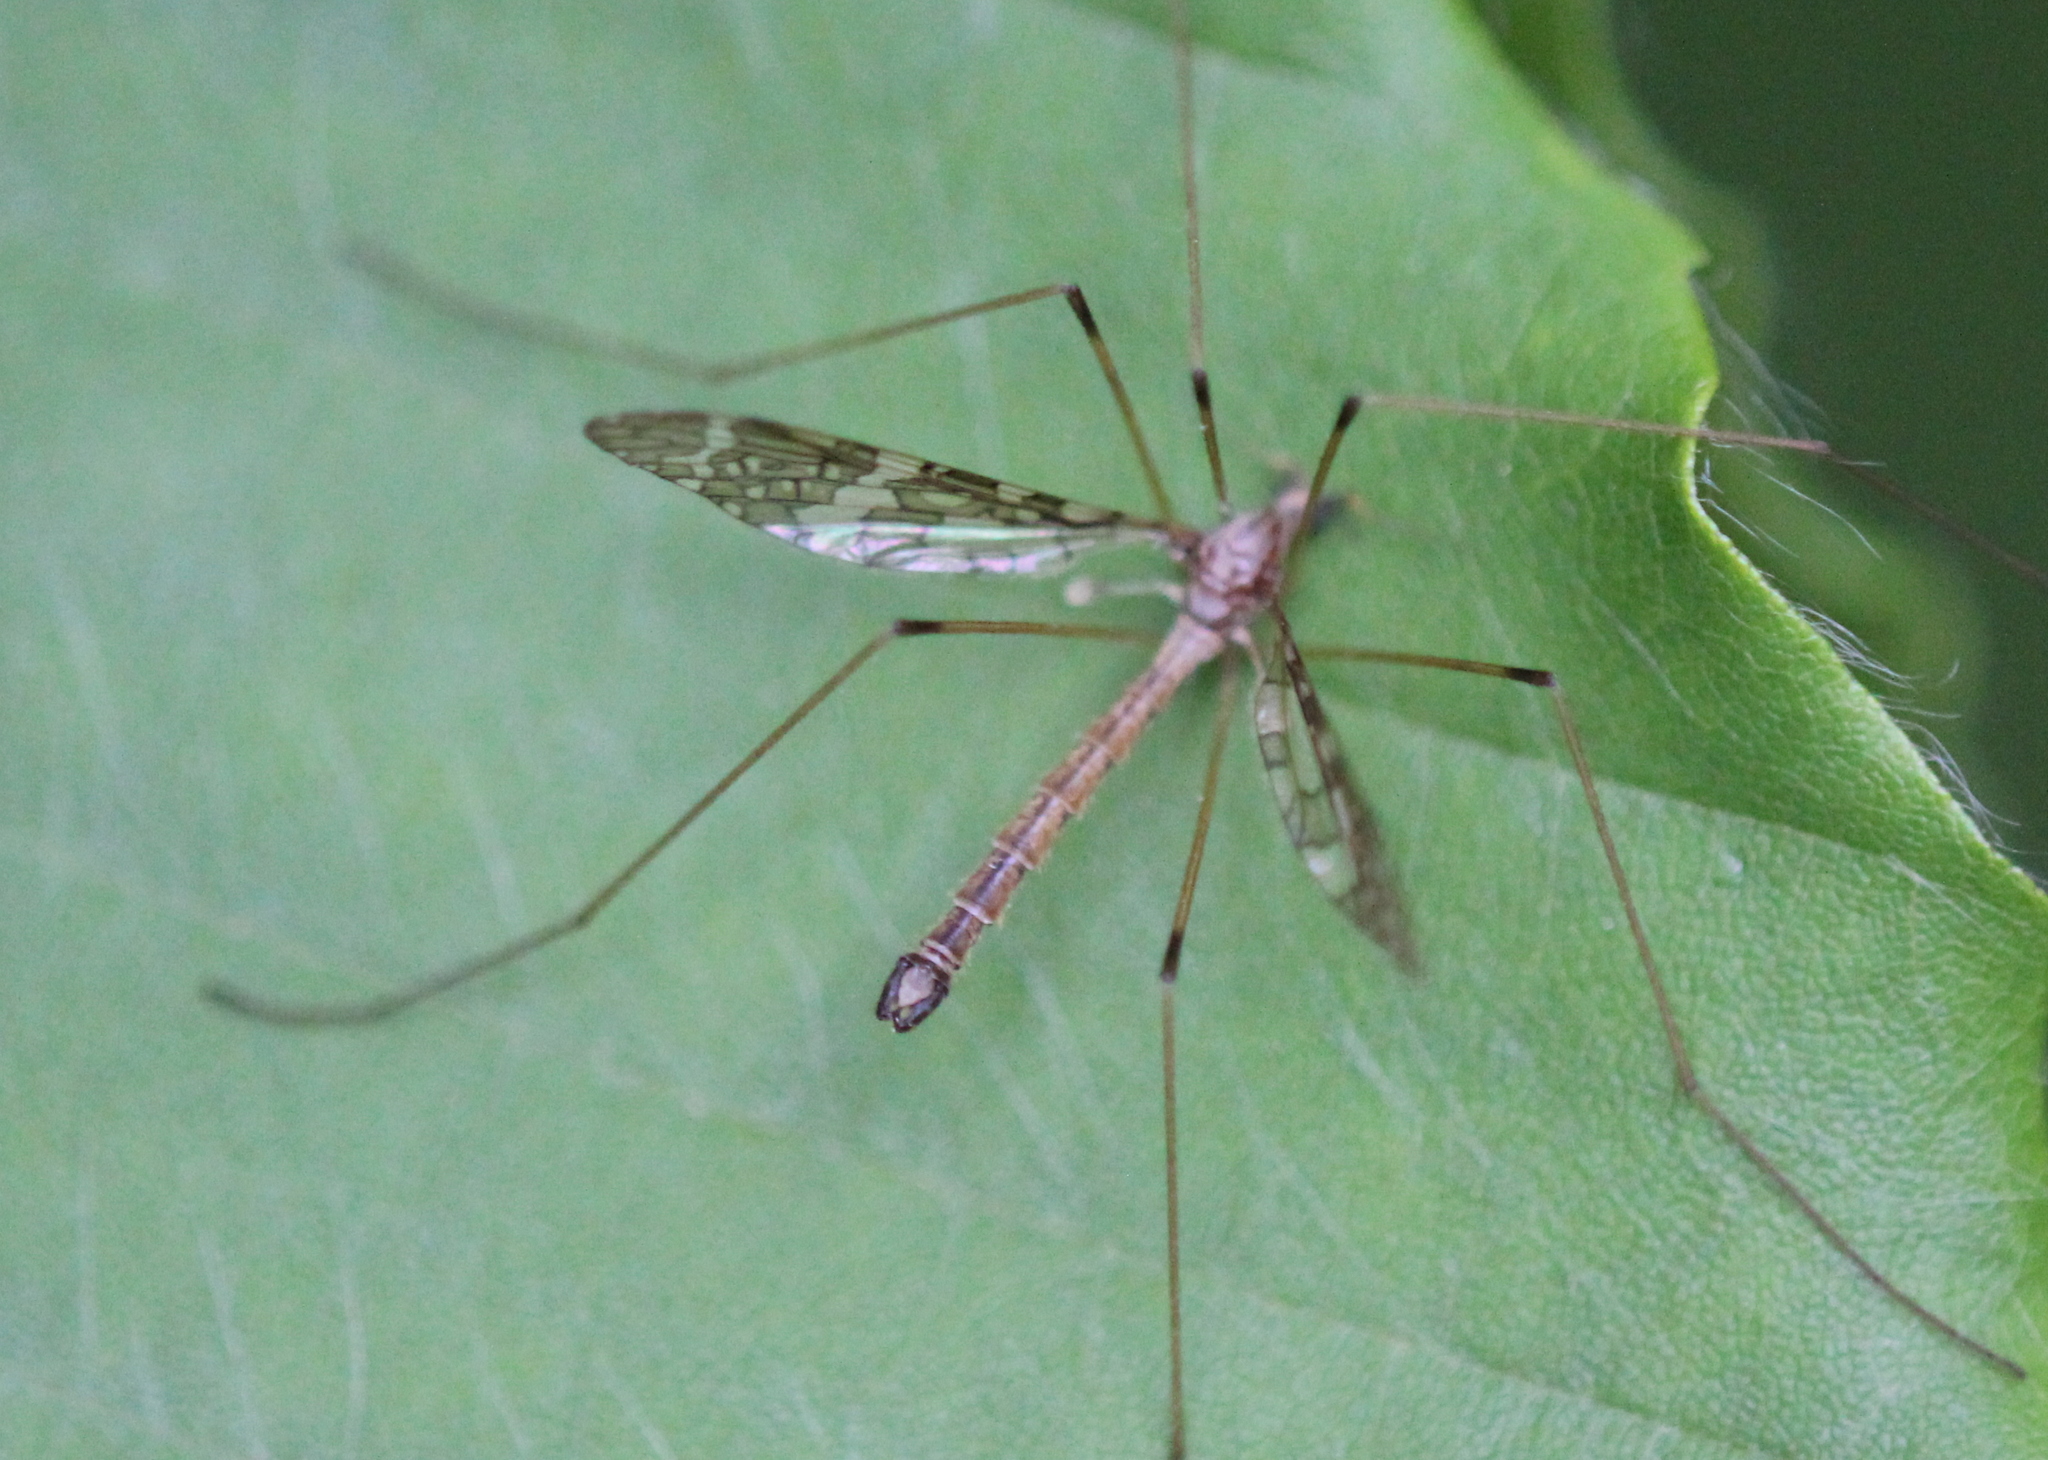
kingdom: Animalia
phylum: Arthropoda
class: Insecta
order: Diptera
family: Limoniidae
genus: Epiphragma
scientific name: Epiphragma fasciapenne
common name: Band-winged crane fly
